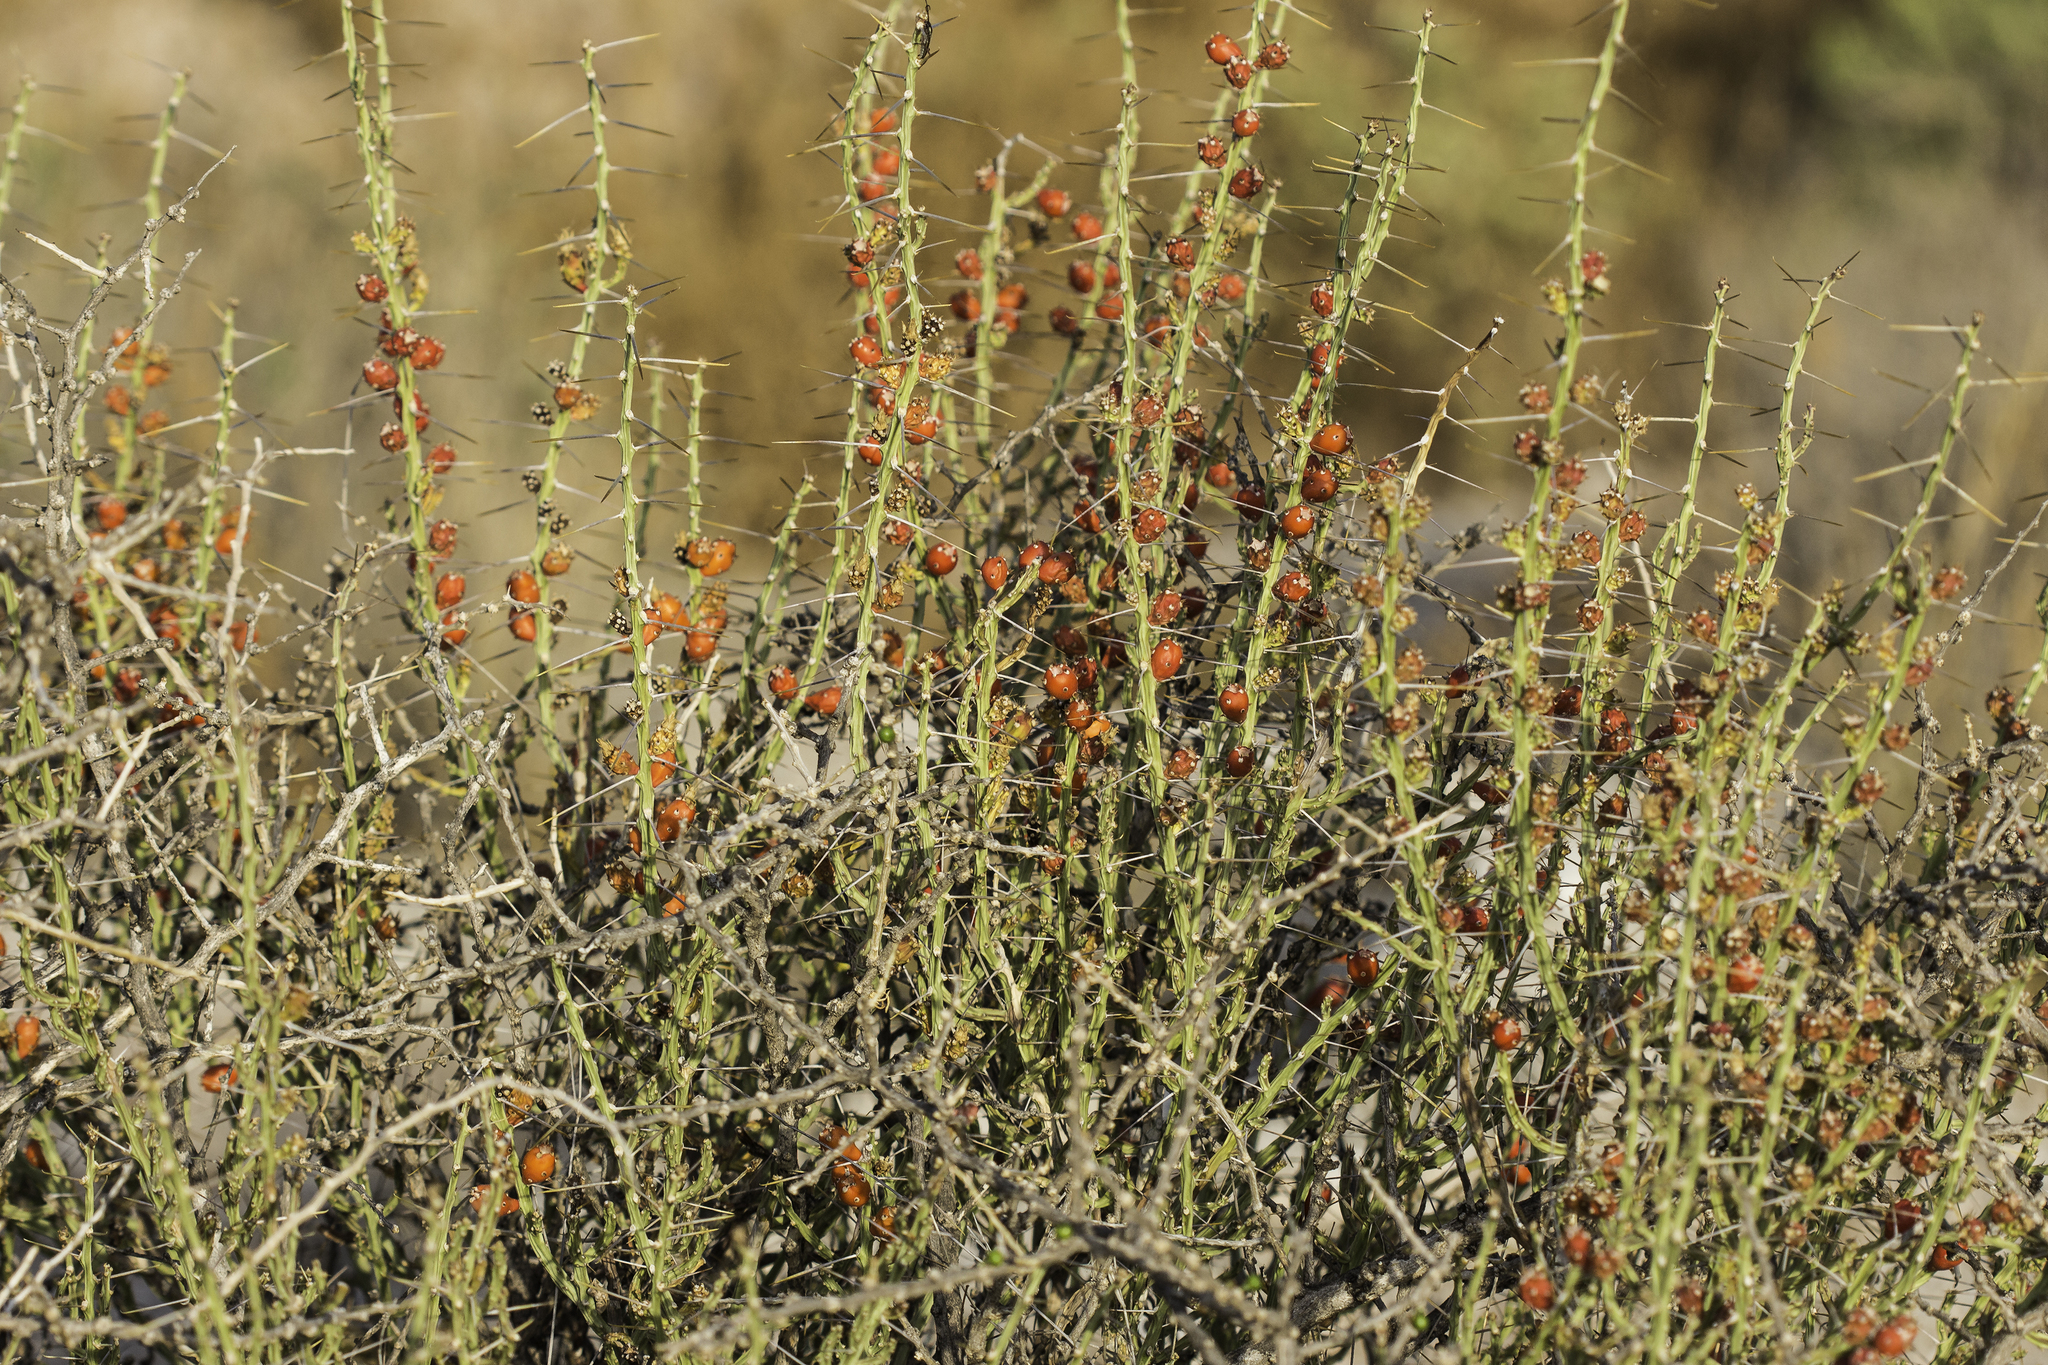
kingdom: Plantae
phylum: Tracheophyta
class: Magnoliopsida
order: Caryophyllales
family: Cactaceae
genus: Cylindropuntia
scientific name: Cylindropuntia leptocaulis
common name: Christmas cactus
